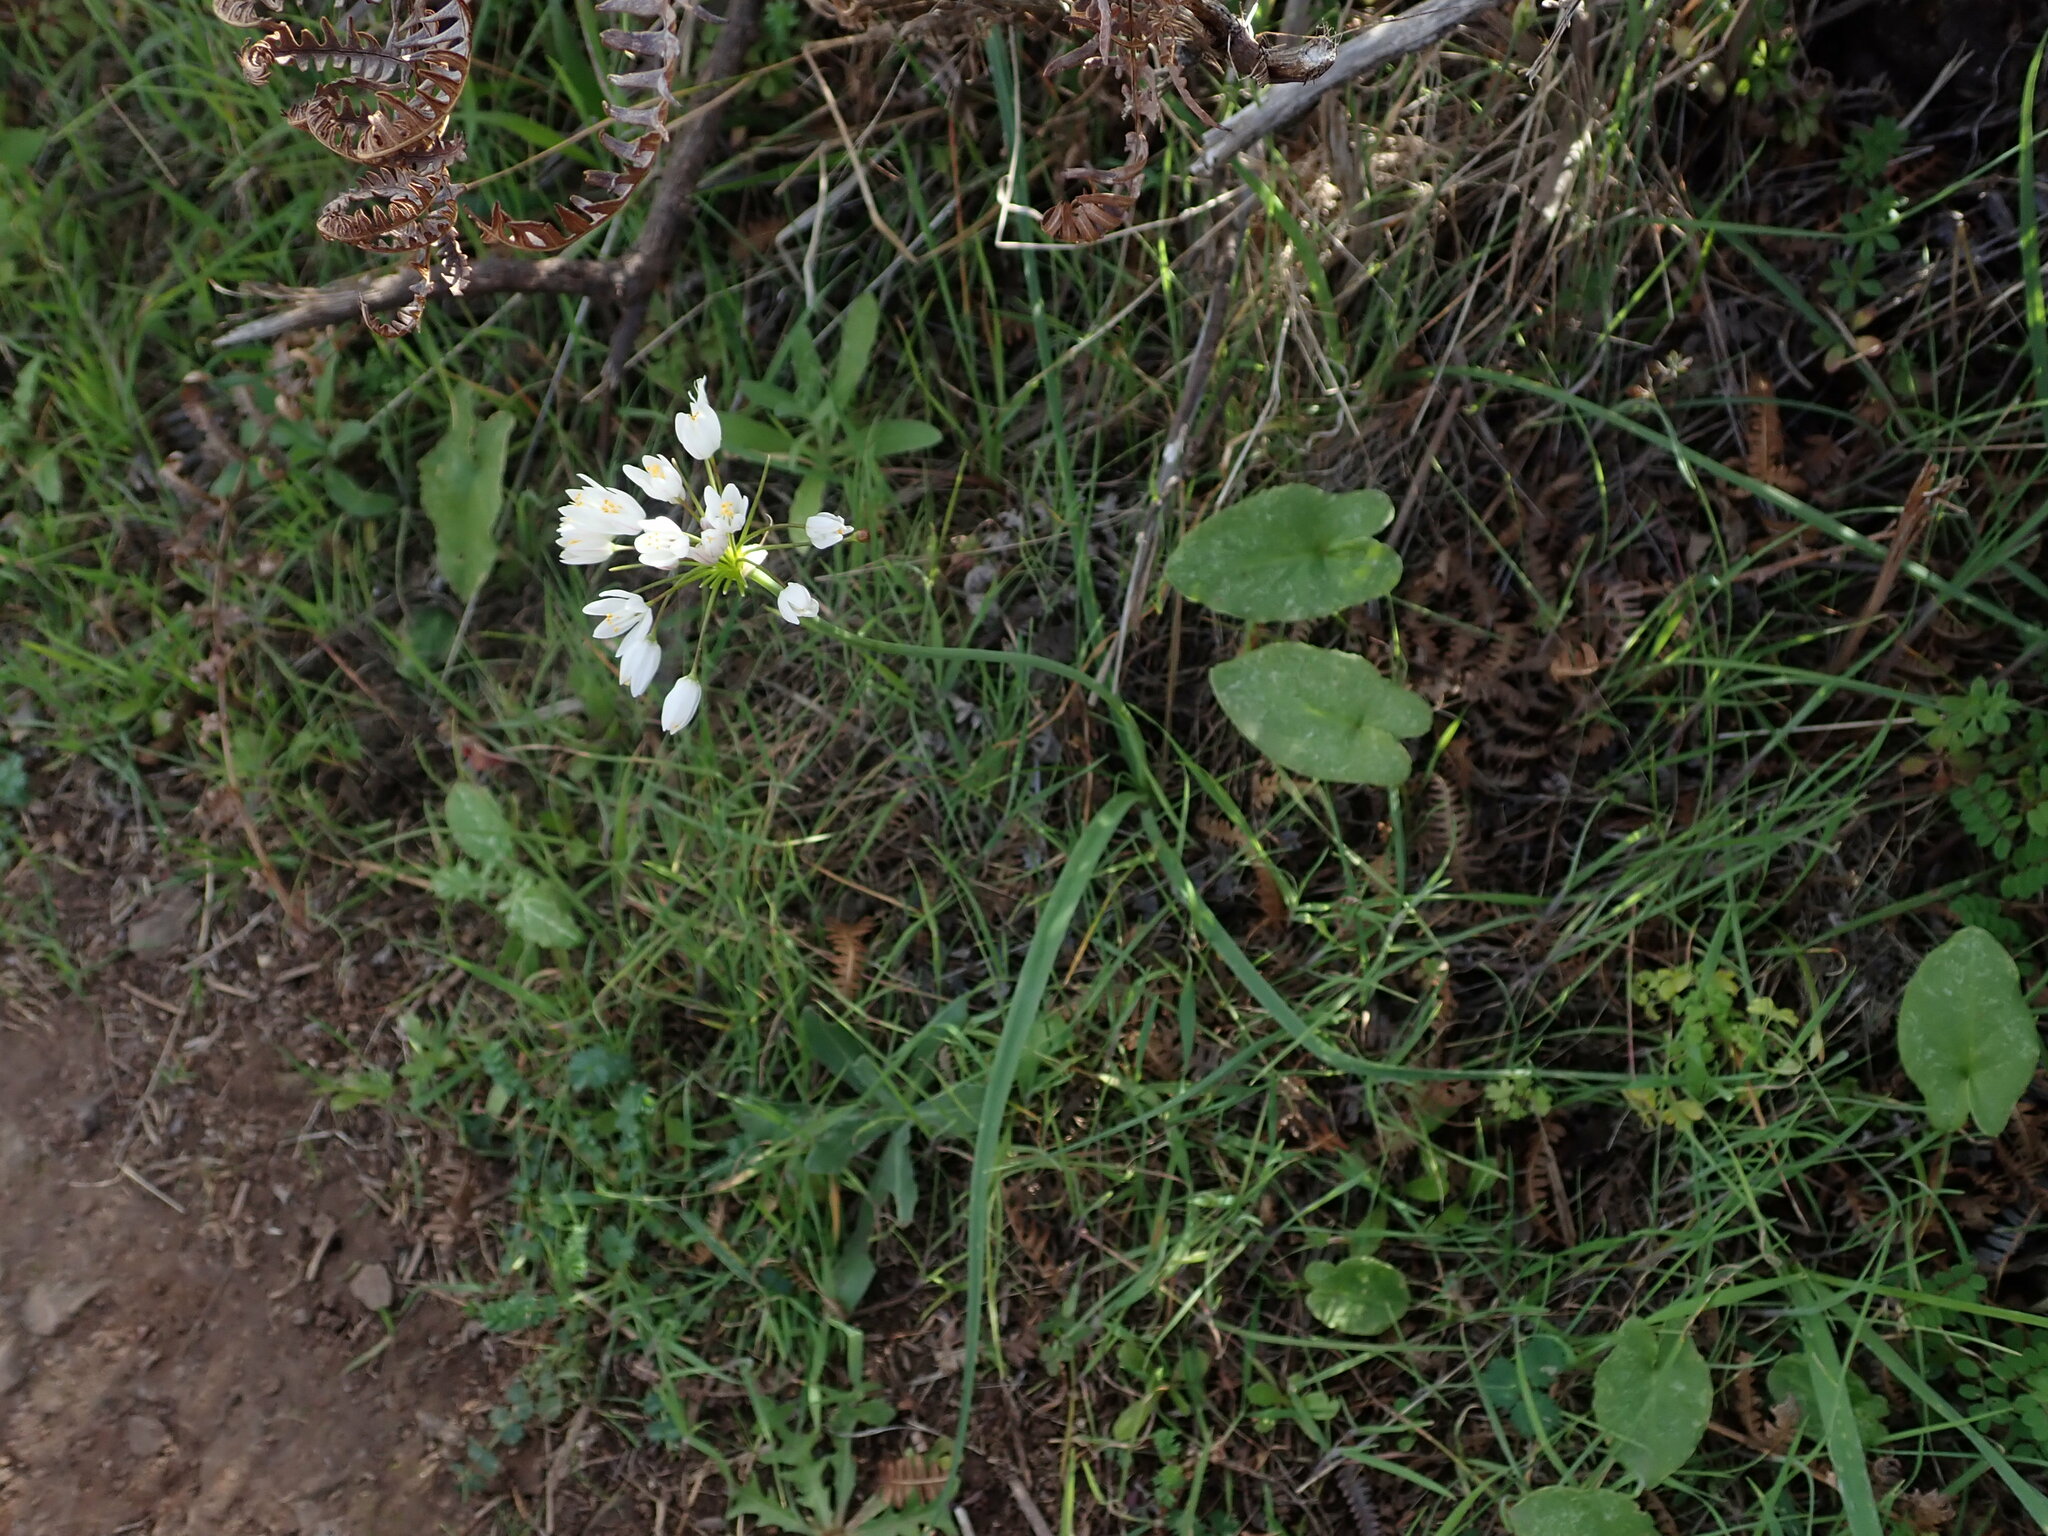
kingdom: Plantae
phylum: Tracheophyta
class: Liliopsida
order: Asparagales
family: Amaryllidaceae
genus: Allium
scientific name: Allium canariense
